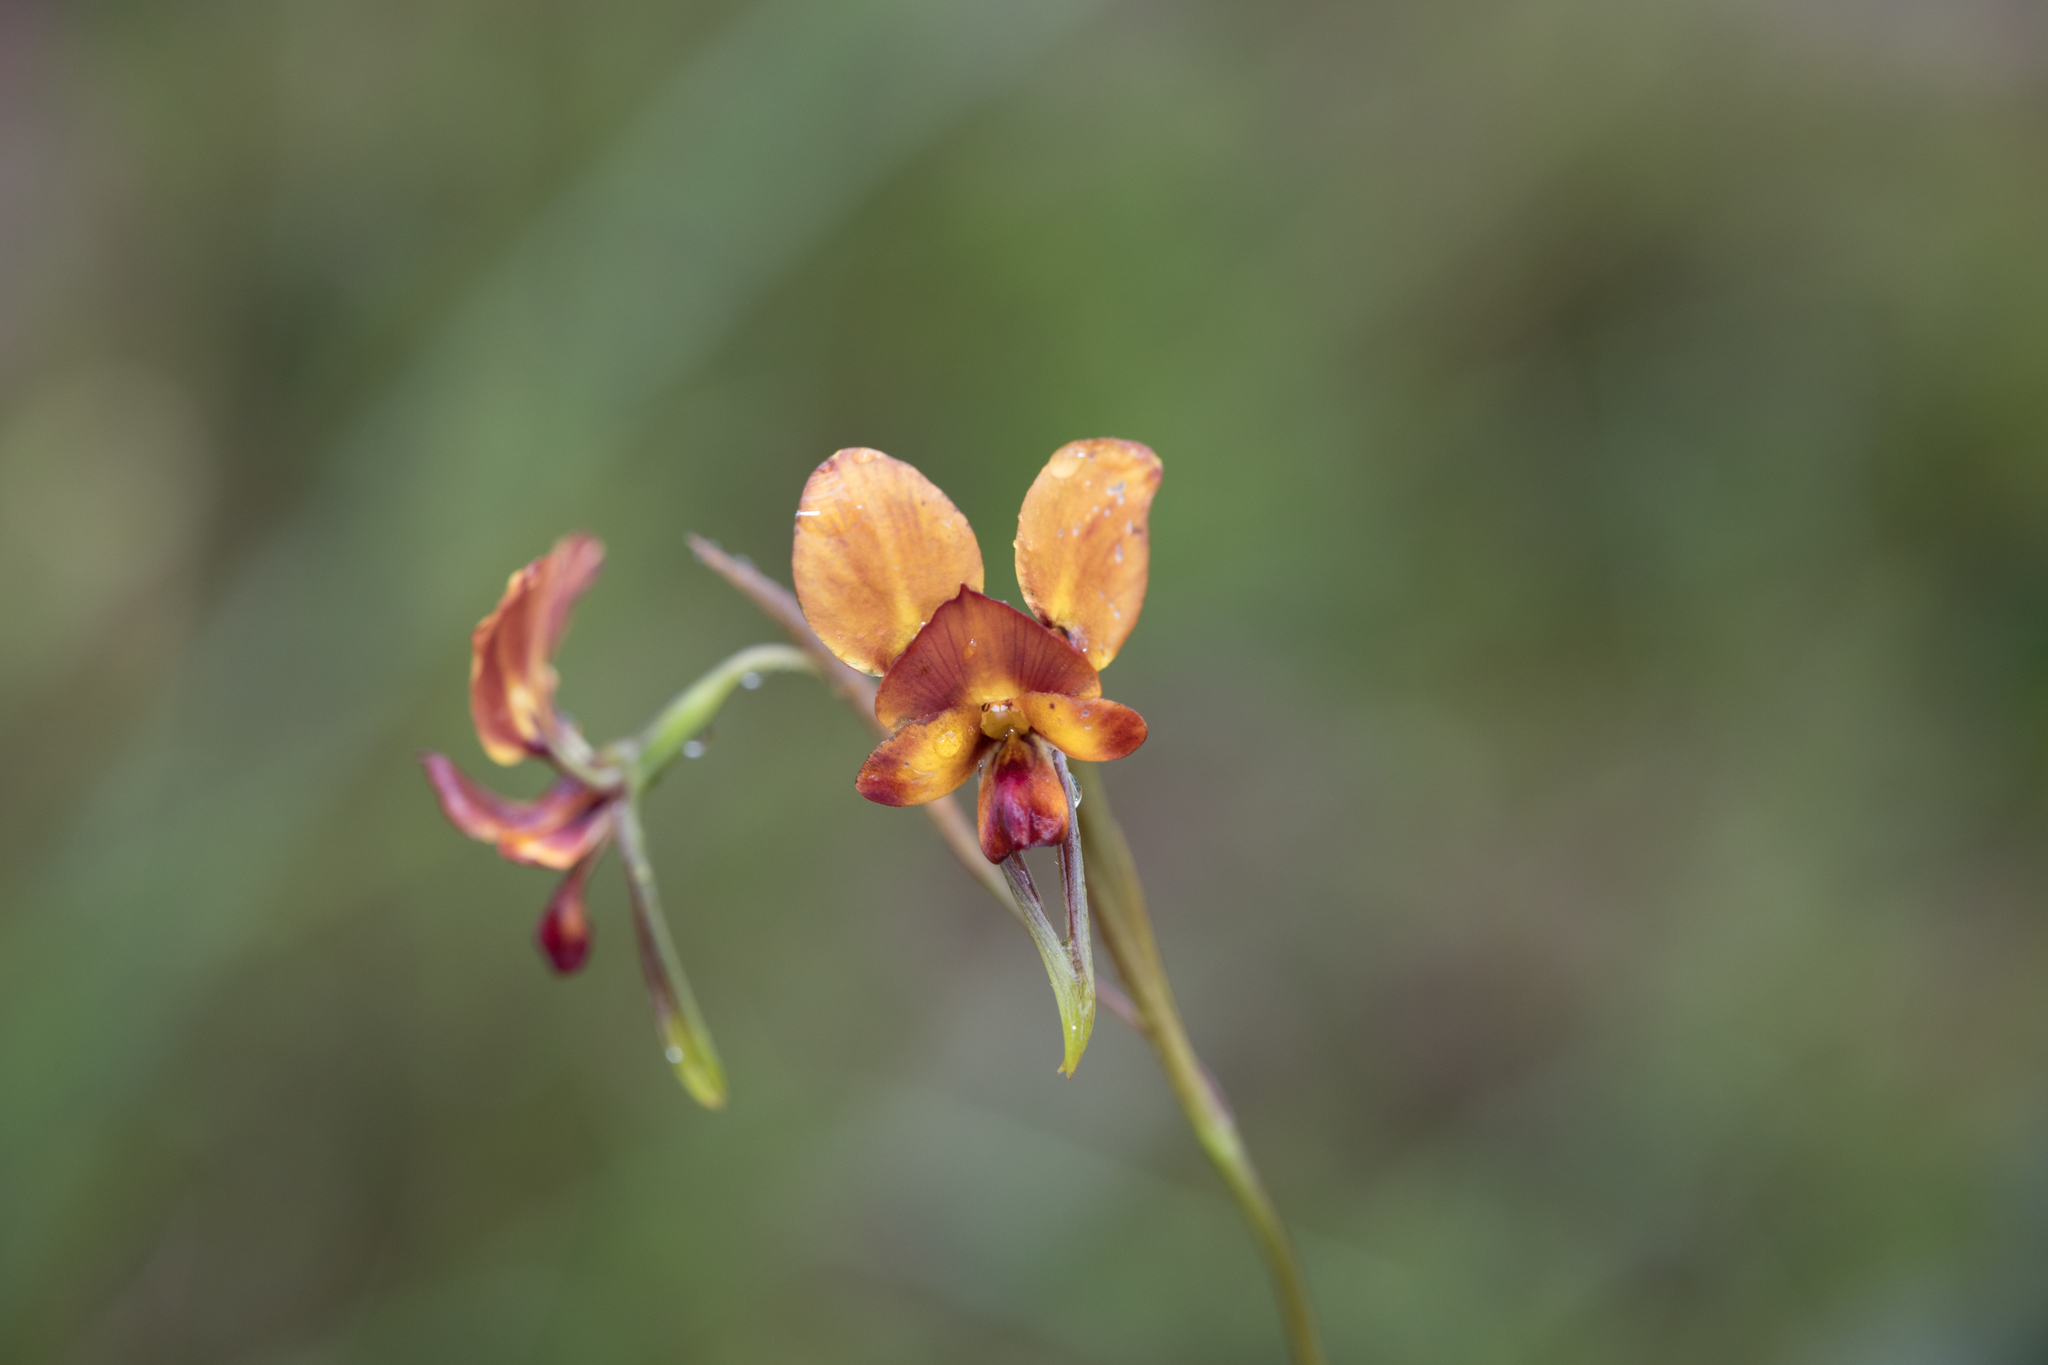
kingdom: Plantae
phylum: Tracheophyta
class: Liliopsida
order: Asparagales
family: Orchidaceae
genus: Diuris
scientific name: Diuris orientis
